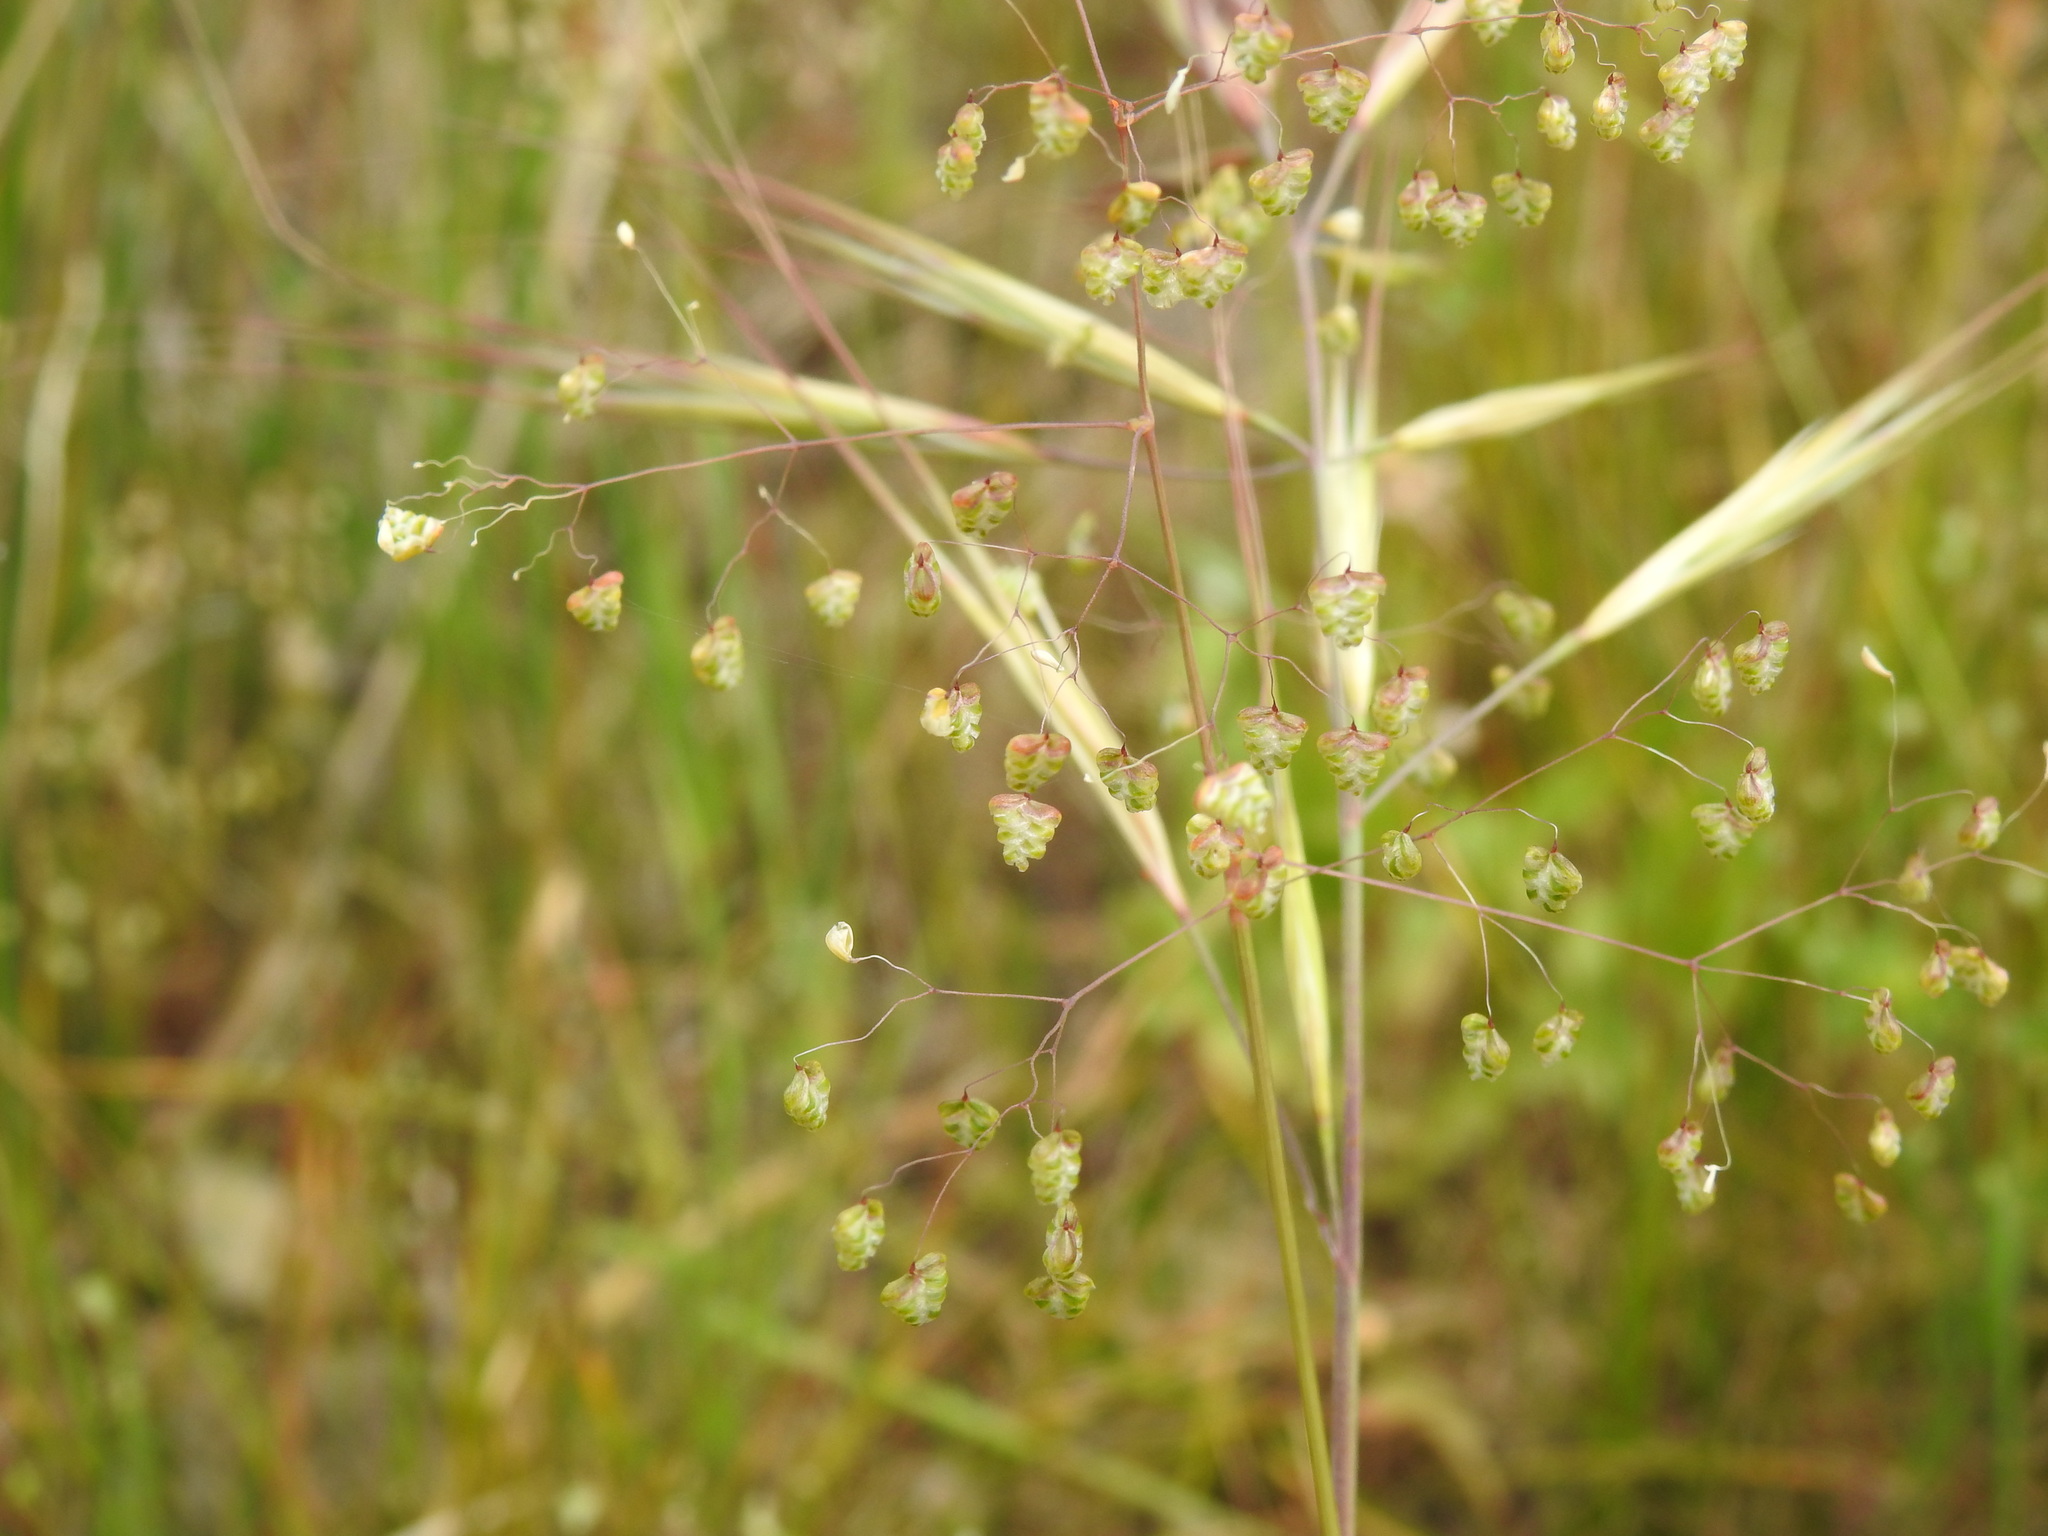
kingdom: Plantae
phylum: Tracheophyta
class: Liliopsida
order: Poales
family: Poaceae
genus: Briza
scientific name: Briza minor
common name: Lesser quaking-grass
